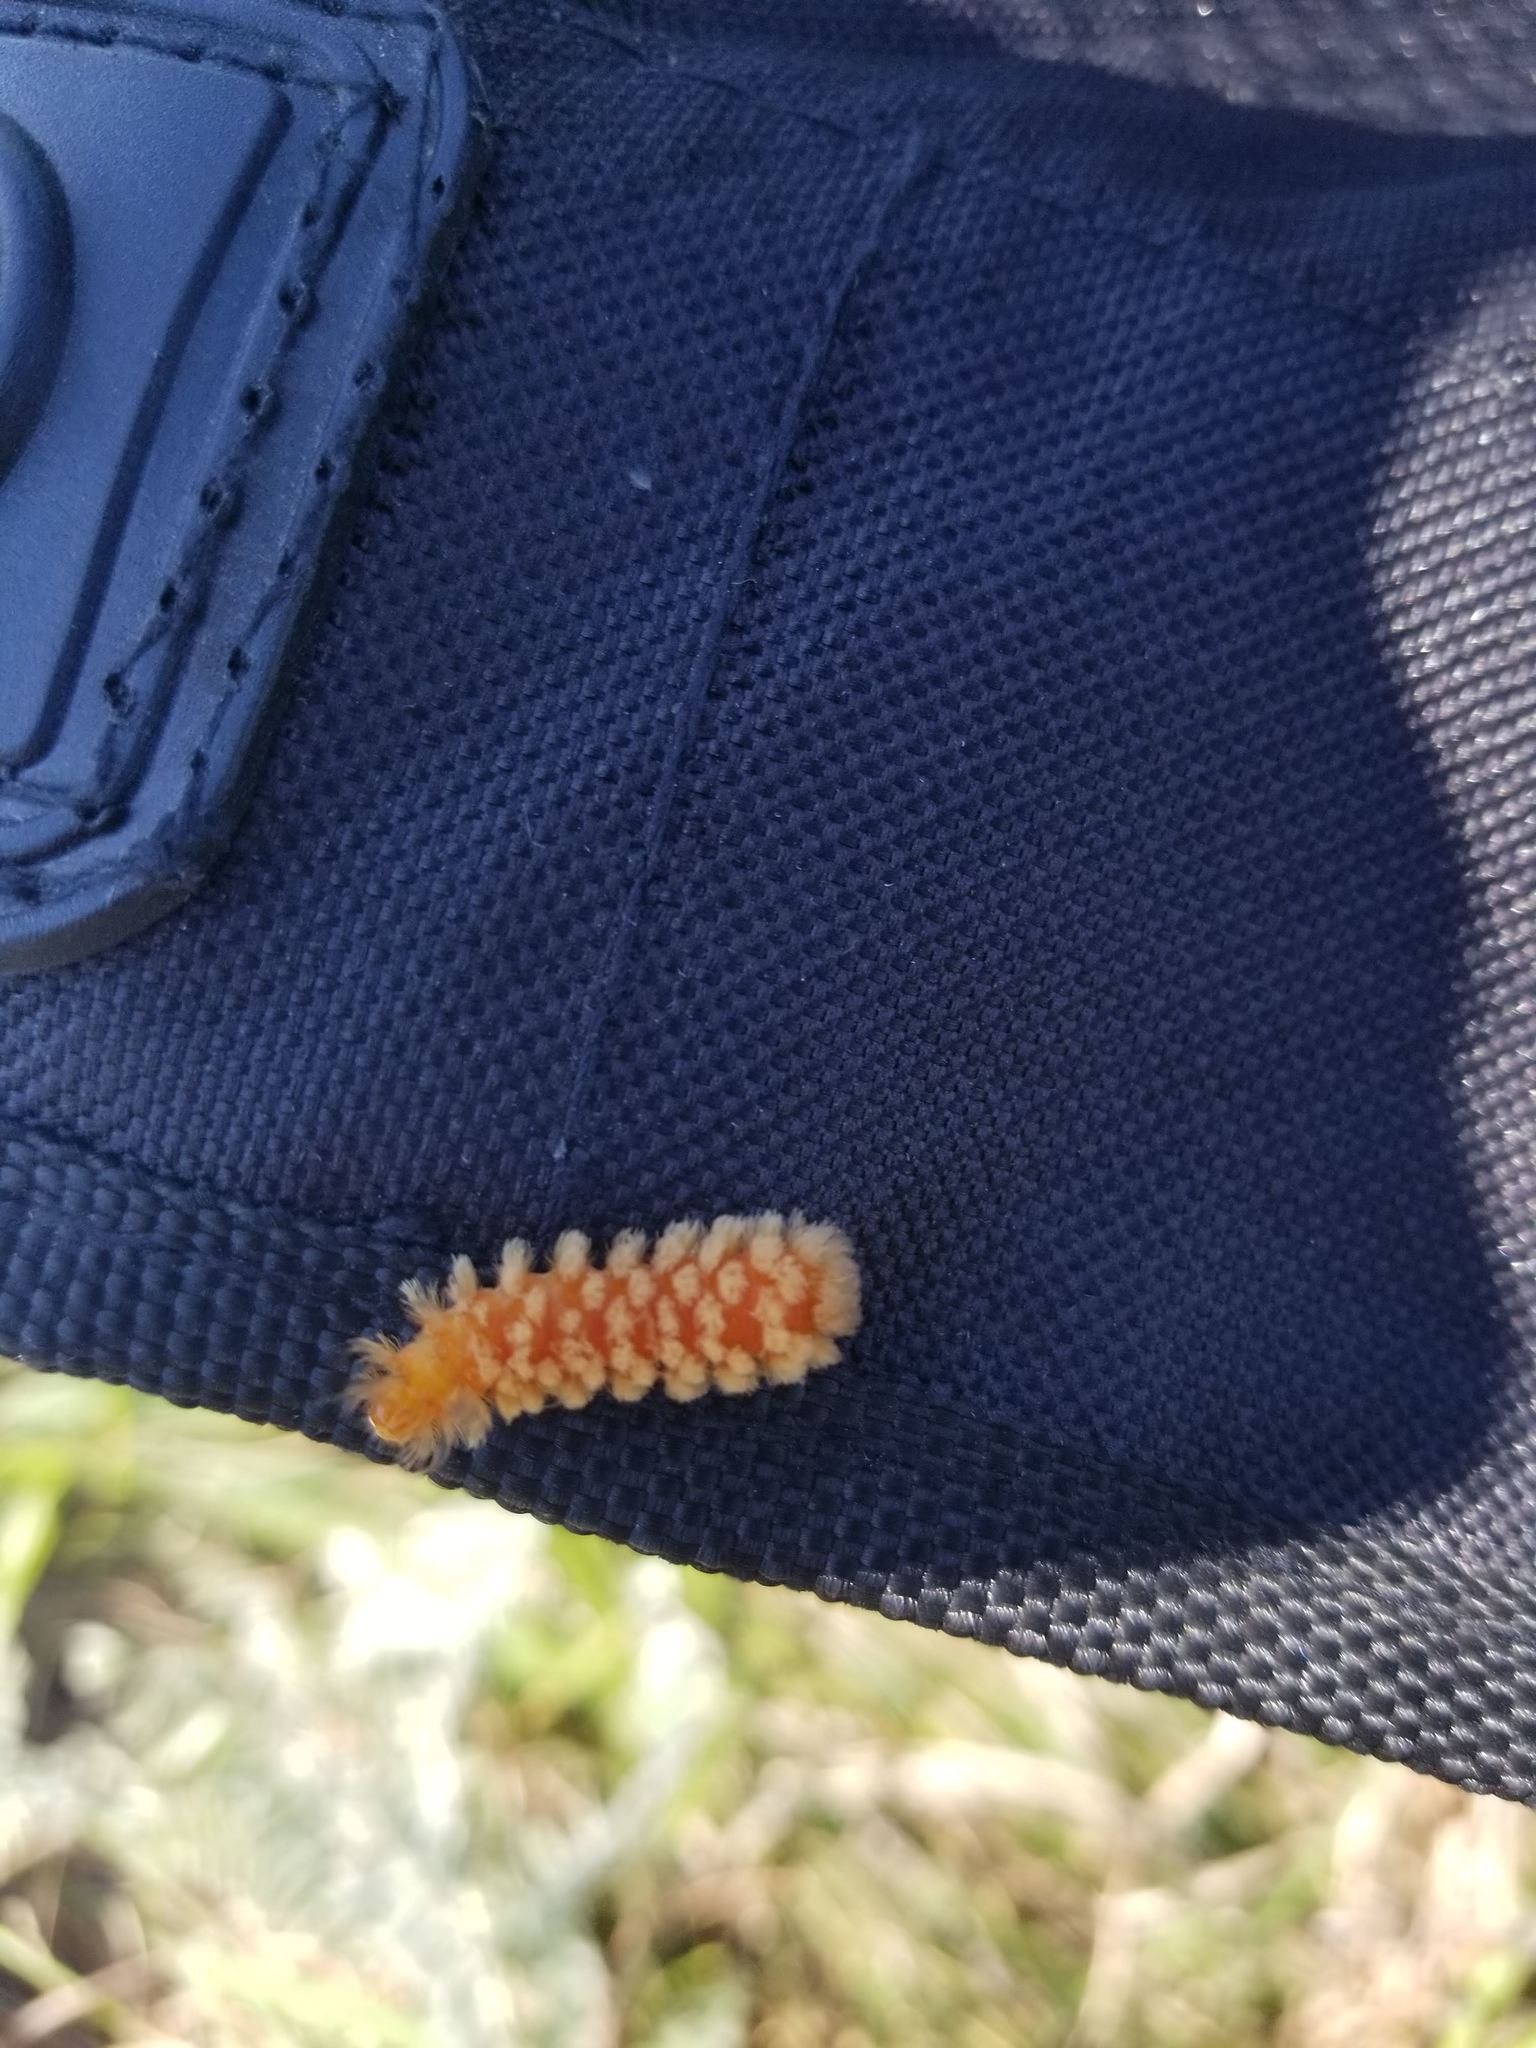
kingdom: Animalia
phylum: Arthropoda
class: Insecta
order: Lepidoptera
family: Erebidae
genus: Cycnia
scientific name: Cycnia collaris
